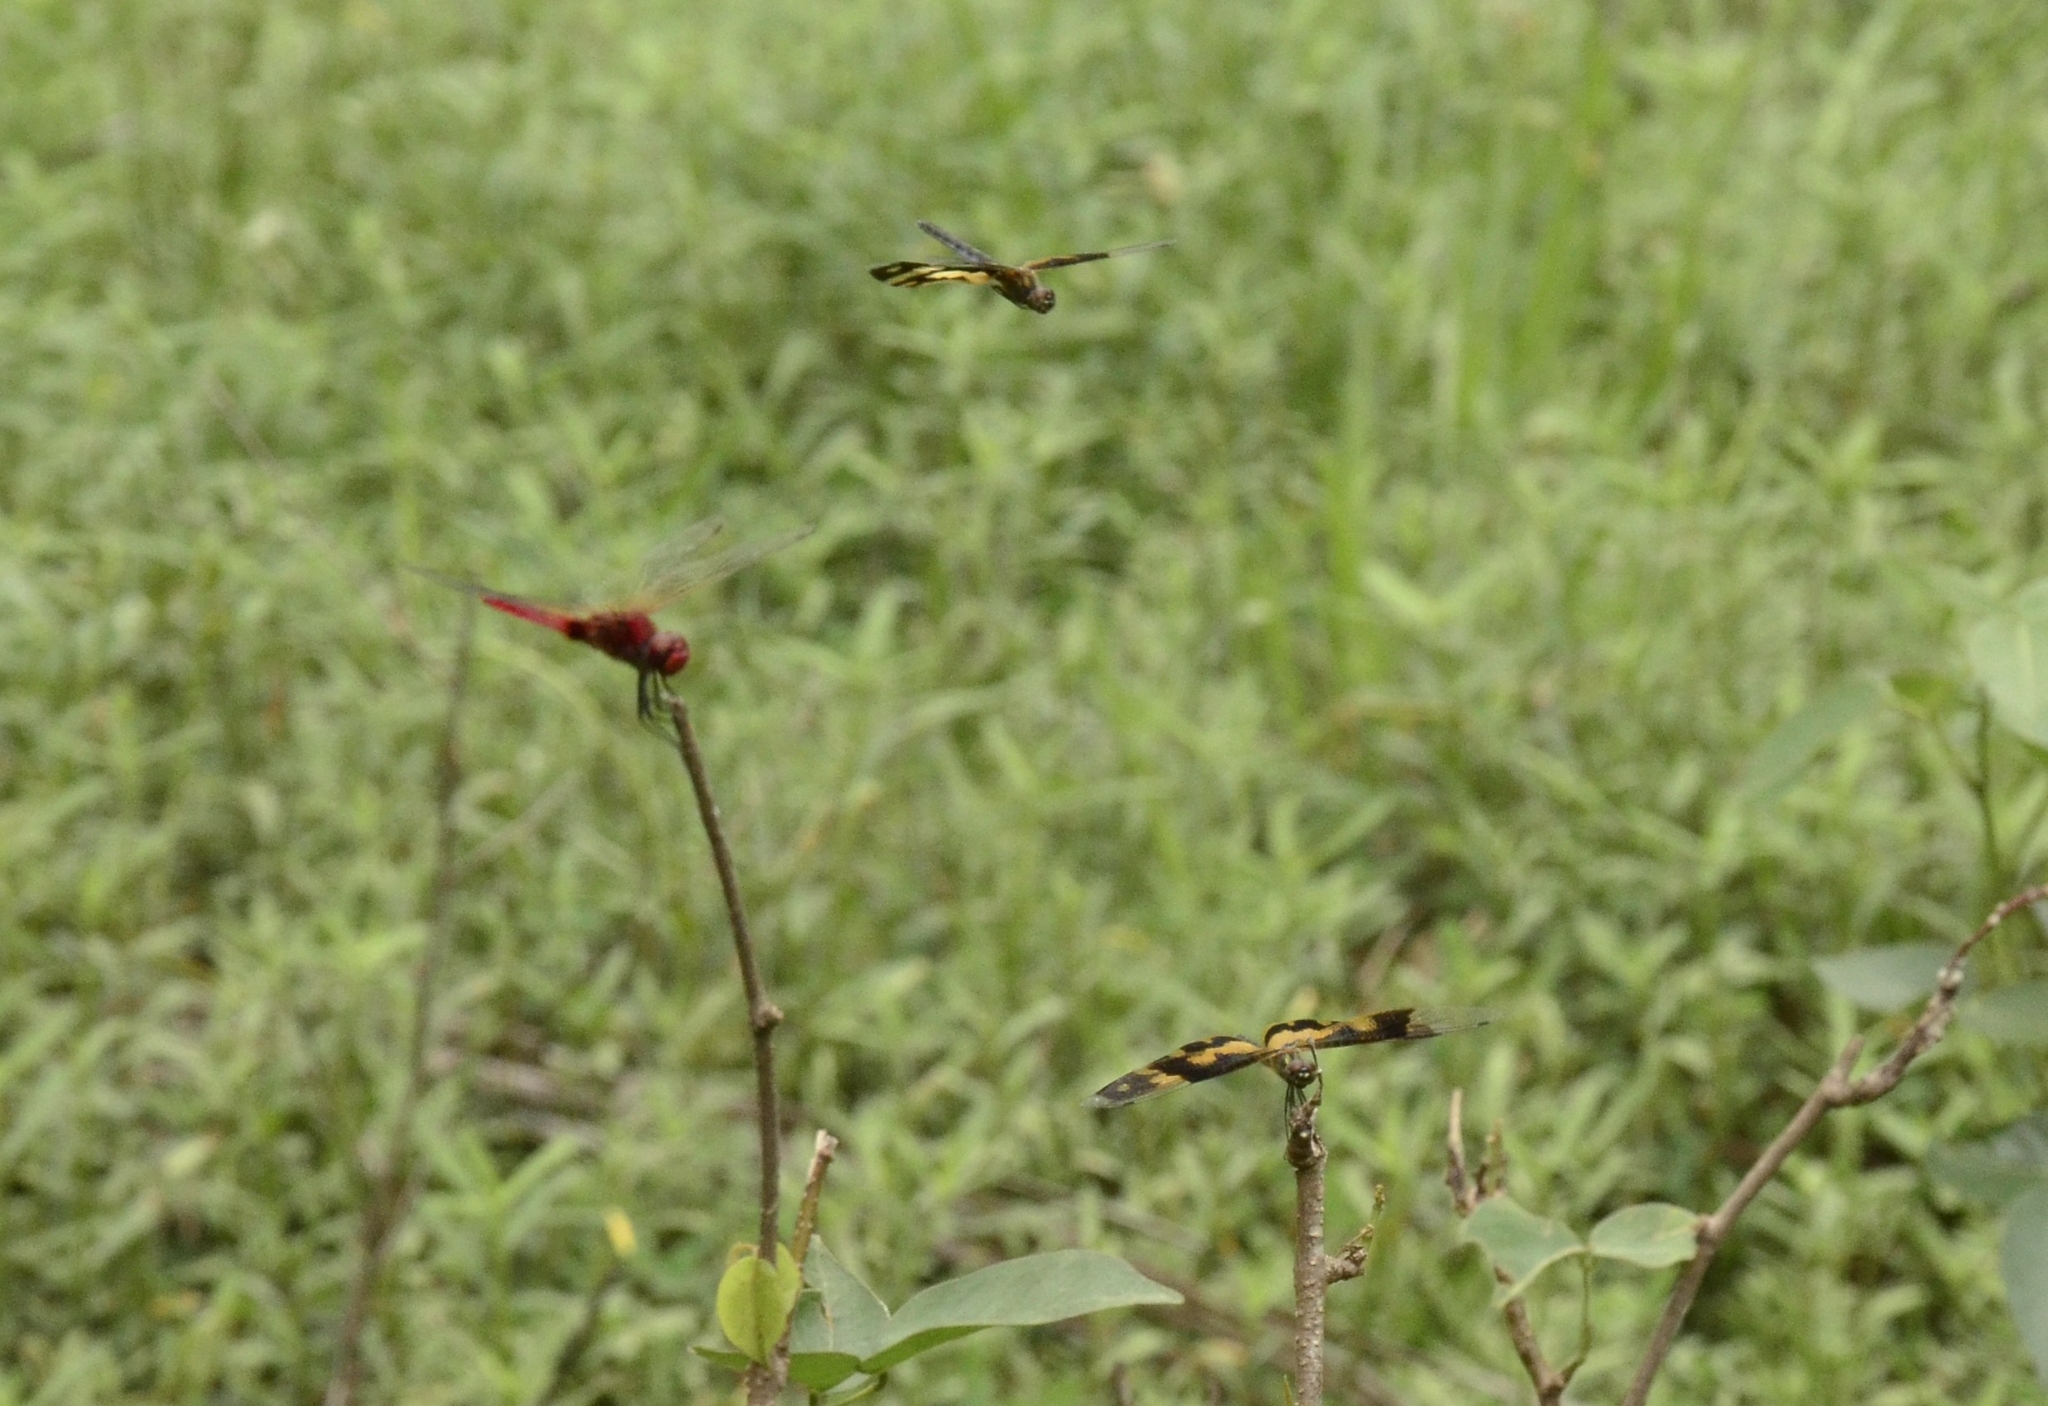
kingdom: Animalia
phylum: Arthropoda
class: Insecta
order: Odonata
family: Libellulidae
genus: Rhyothemis
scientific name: Rhyothemis variegata
